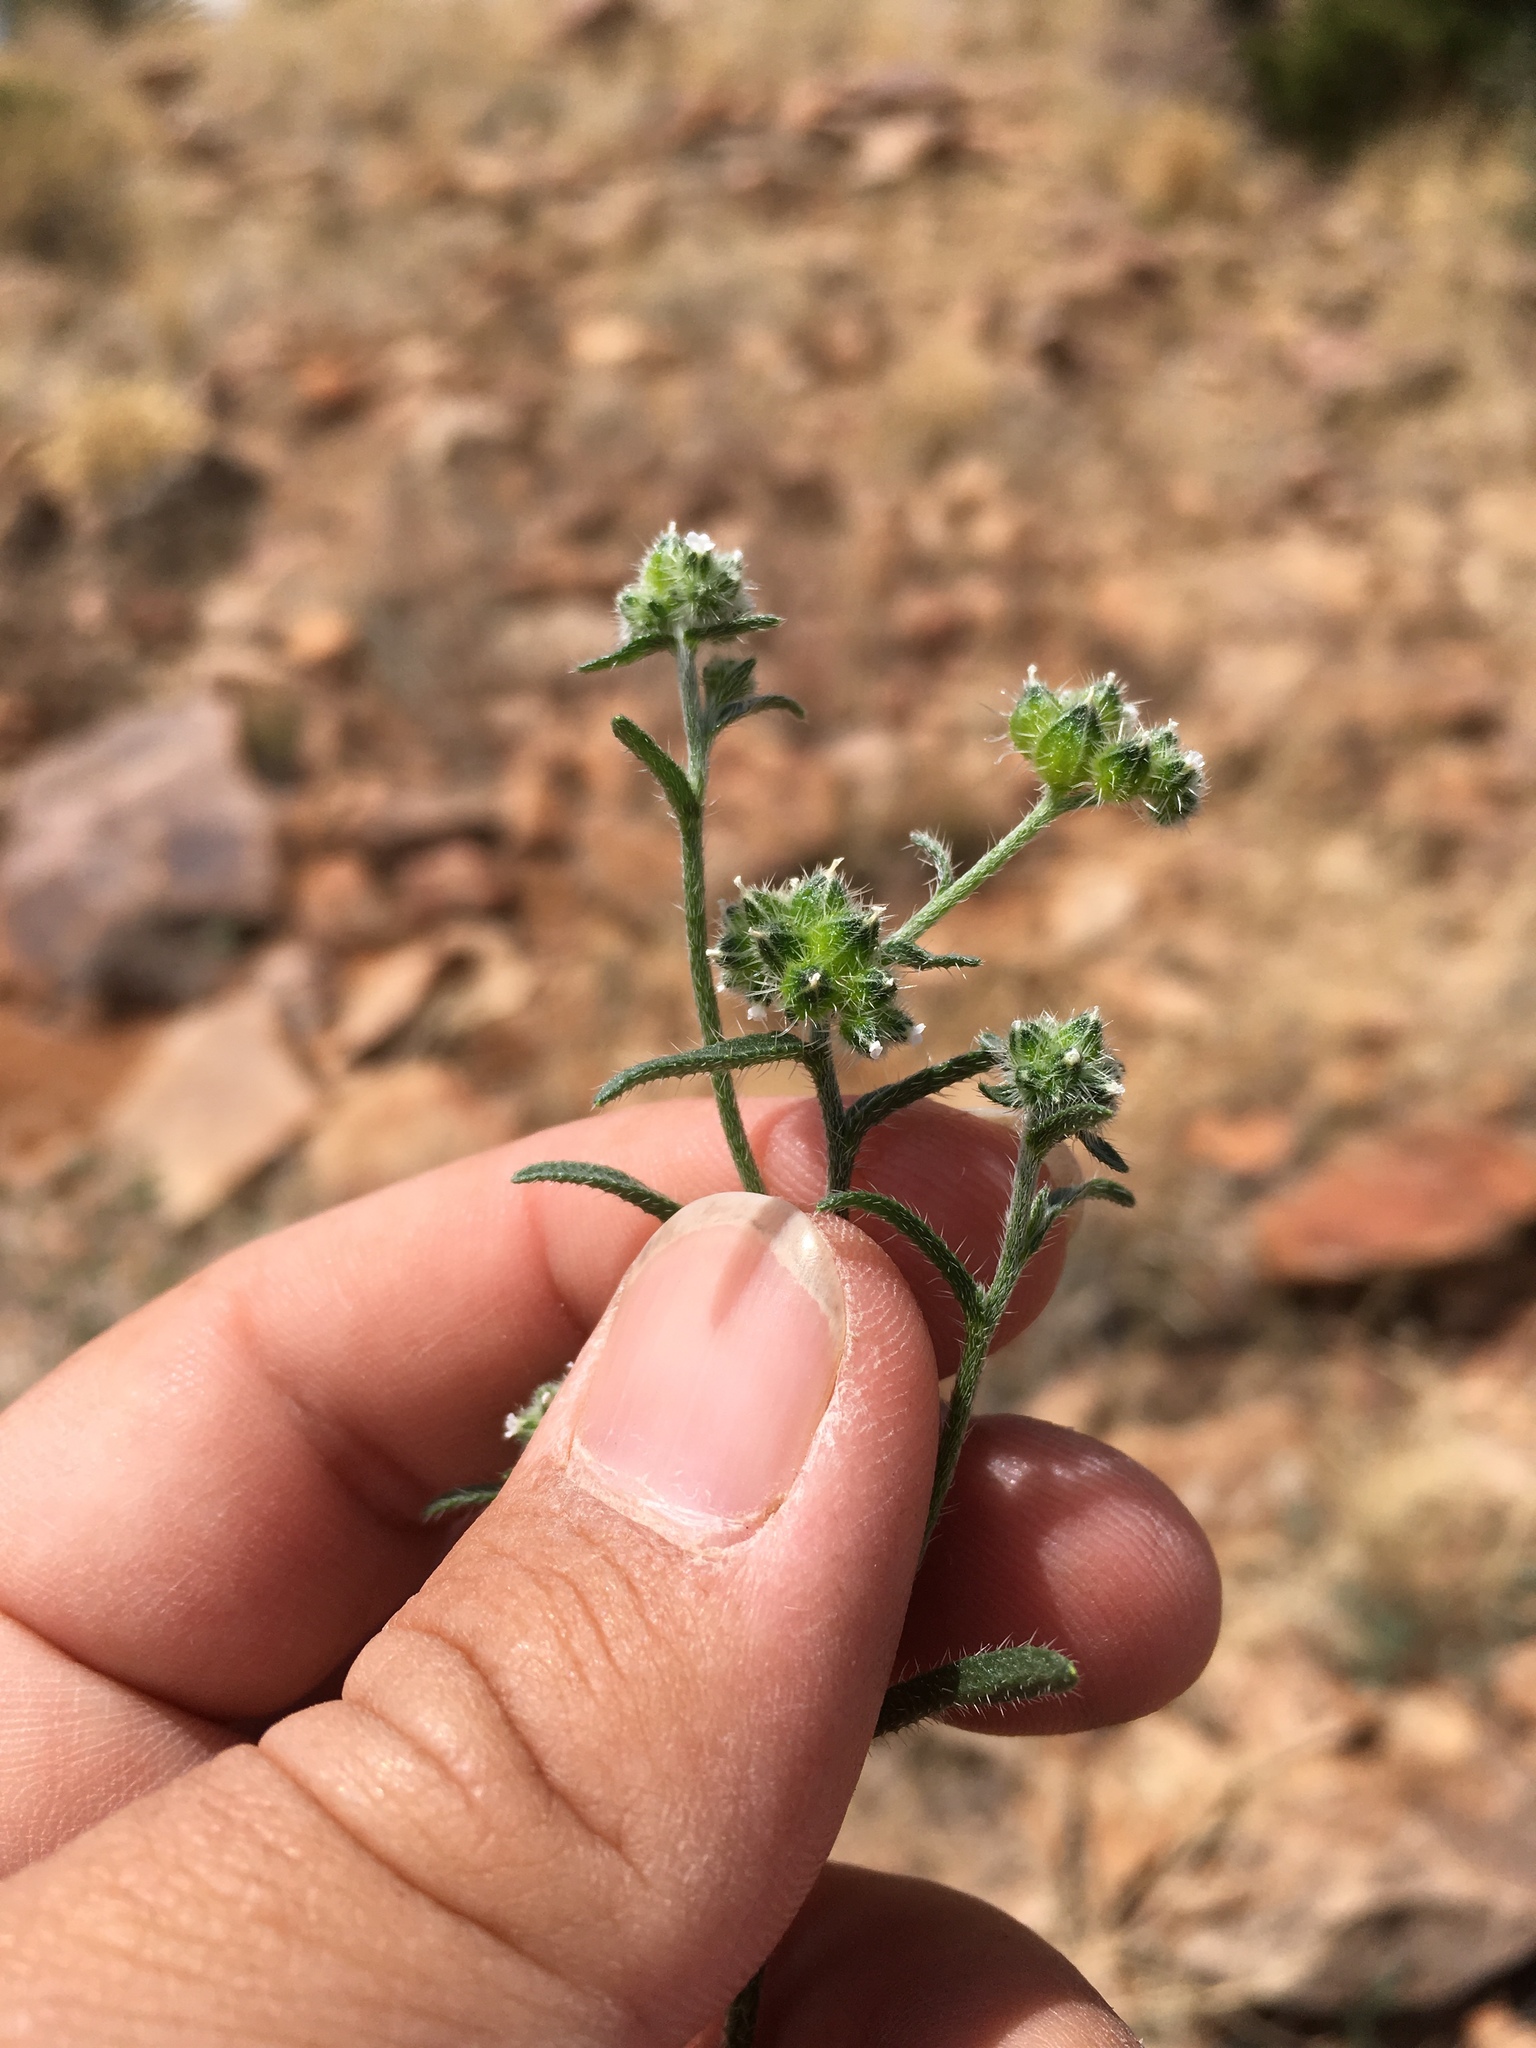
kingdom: Plantae
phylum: Tracheophyta
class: Magnoliopsida
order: Boraginales
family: Boraginaceae
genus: Cryptantha
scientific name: Cryptantha pterocarya
